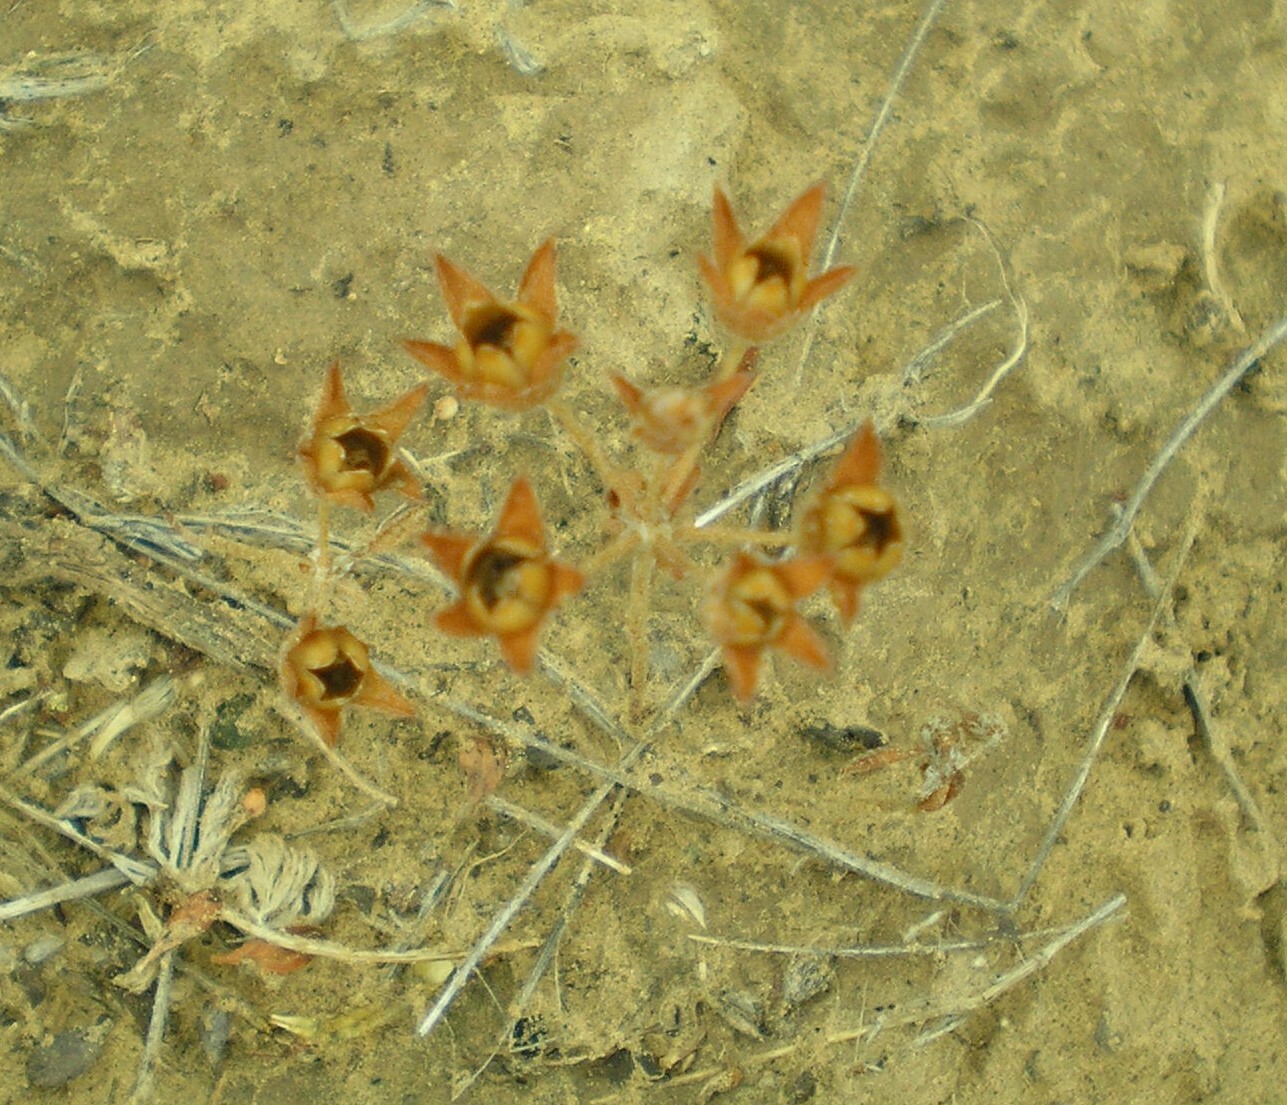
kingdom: Plantae
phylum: Tracheophyta
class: Magnoliopsida
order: Ericales
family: Primulaceae
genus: Androsace
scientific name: Androsace maxima
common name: Annual androsace
